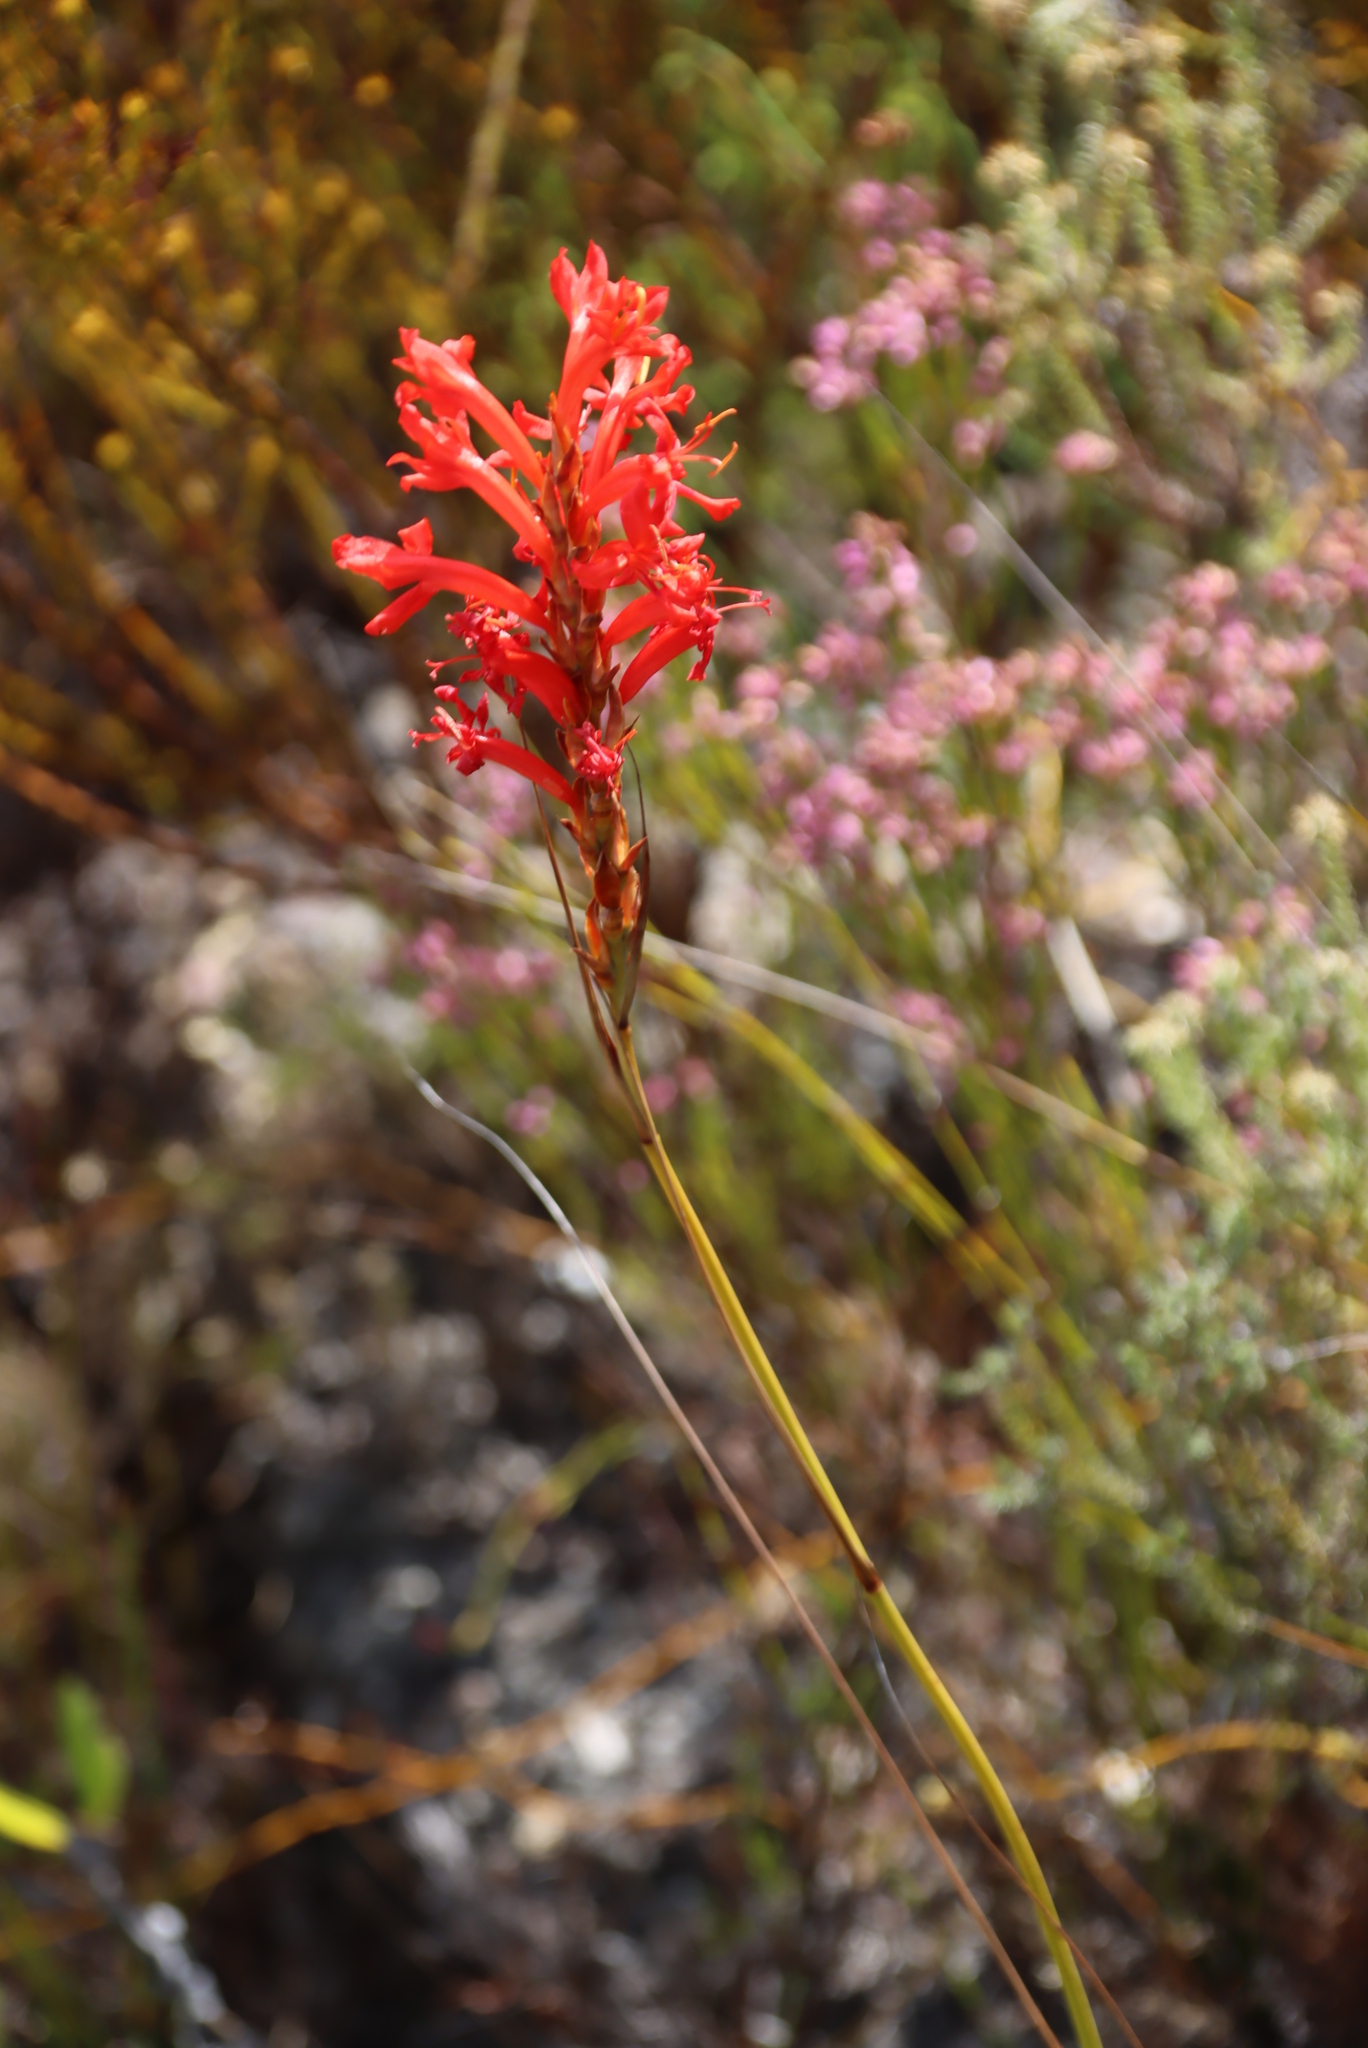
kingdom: Plantae
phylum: Tracheophyta
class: Liliopsida
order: Asparagales
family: Iridaceae
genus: Tritoniopsis
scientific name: Tritoniopsis triticea
